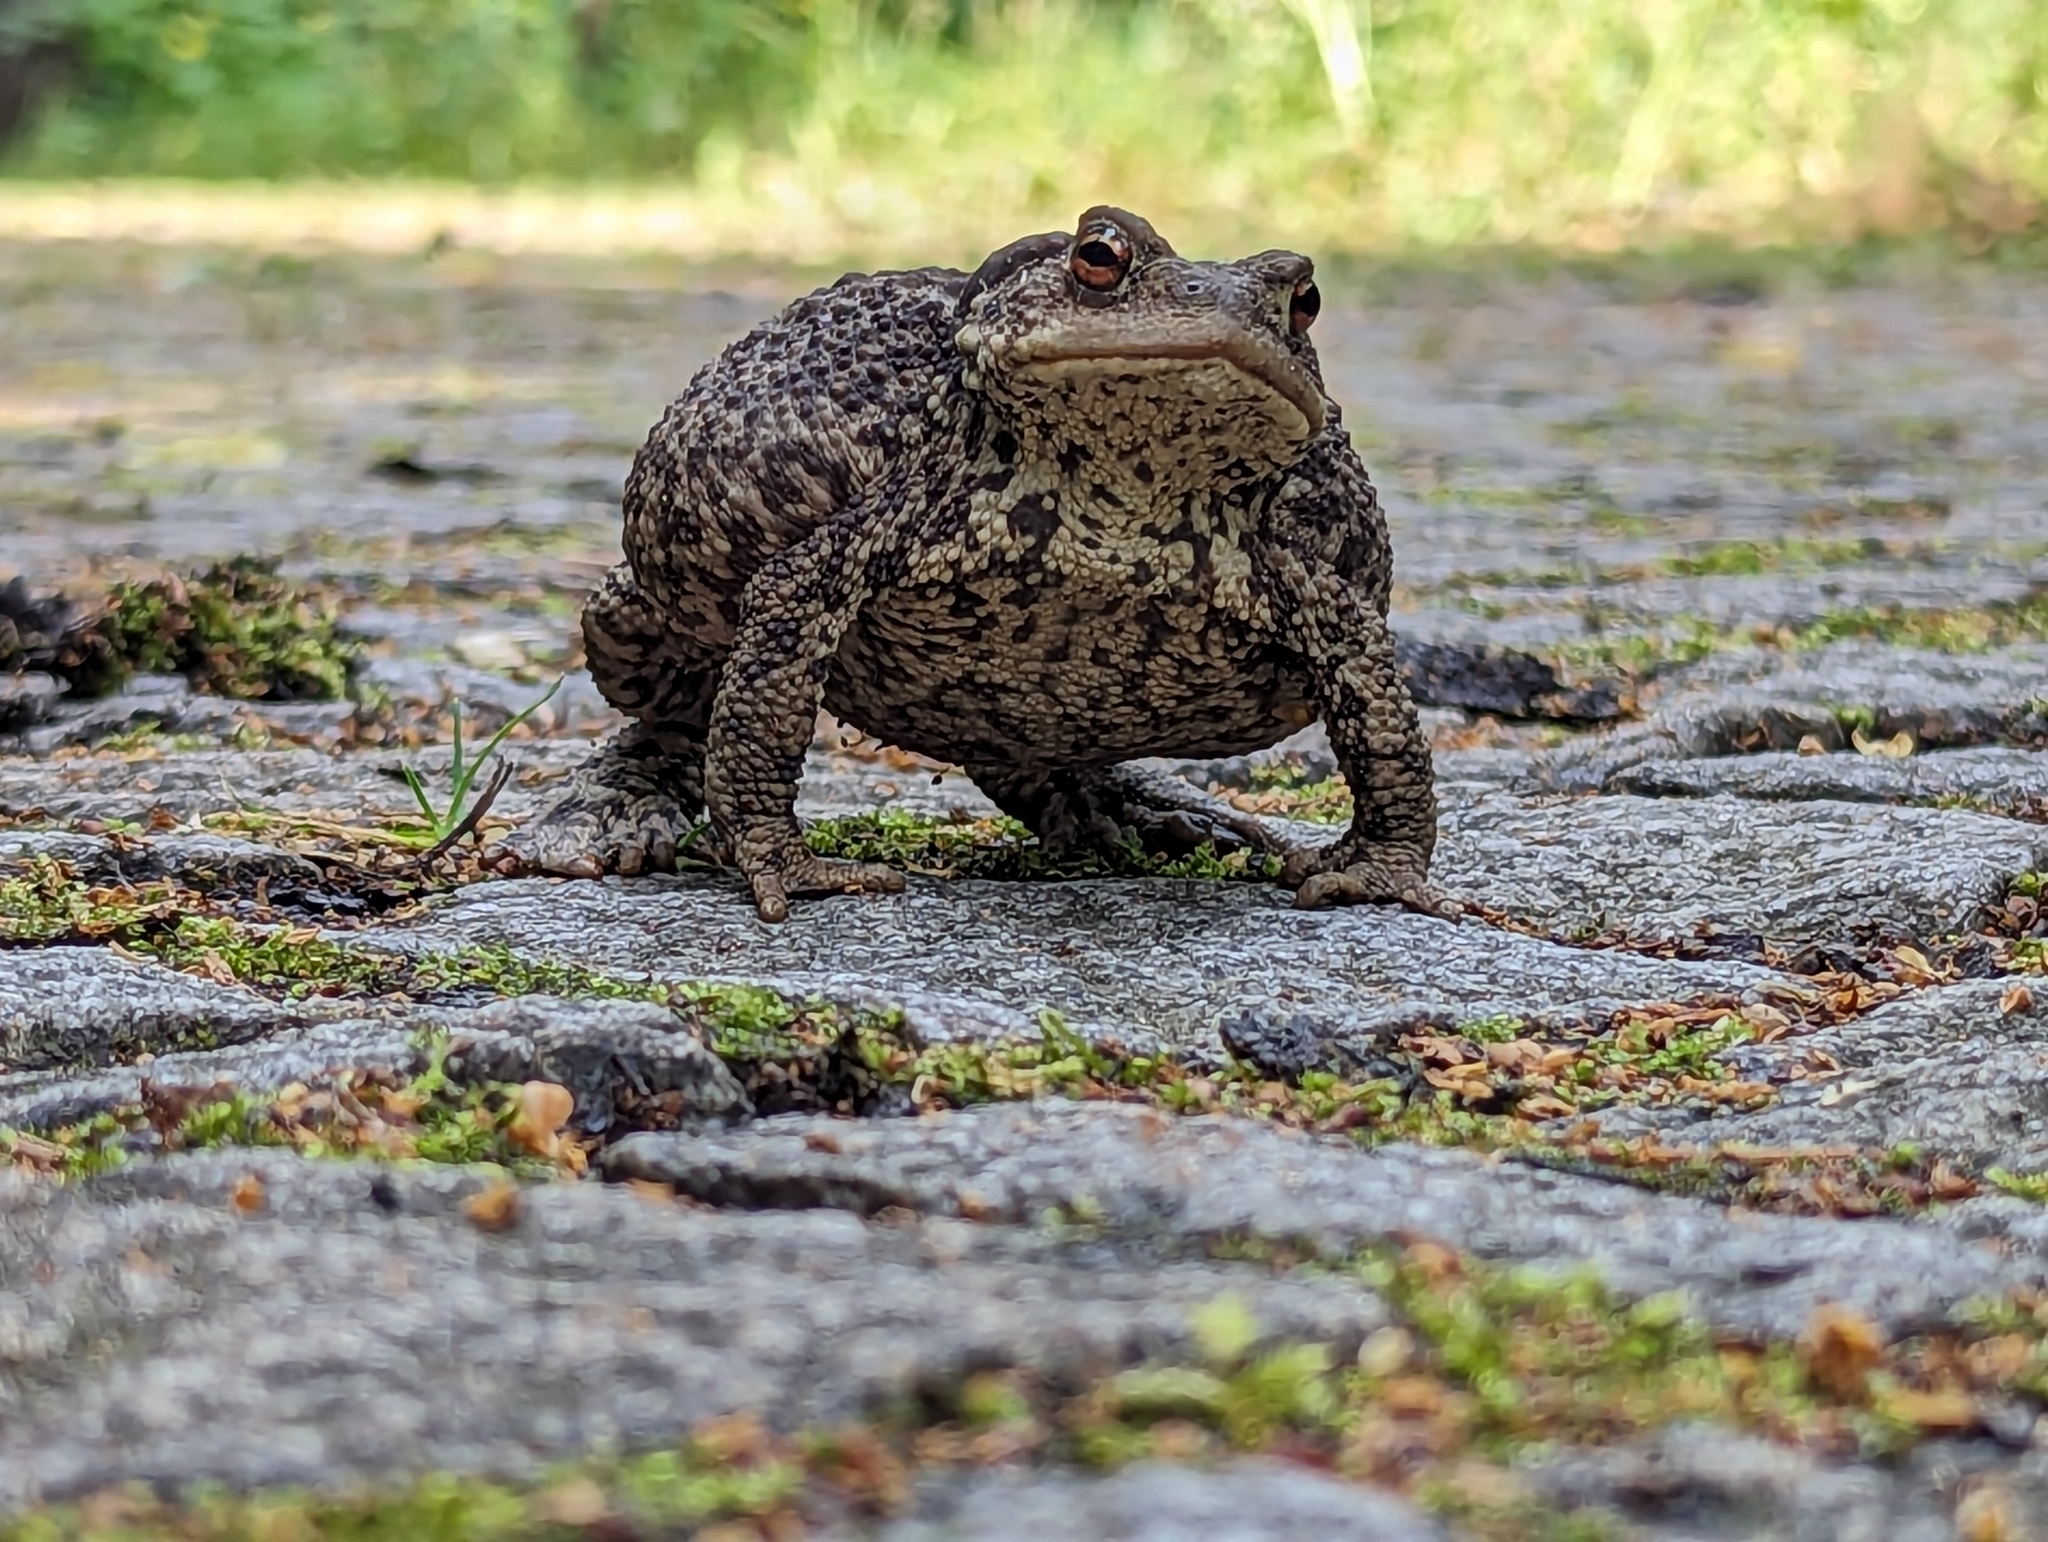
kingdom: Animalia
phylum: Chordata
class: Amphibia
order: Anura
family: Bufonidae
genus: Bufo
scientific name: Bufo bufo
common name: Common toad
